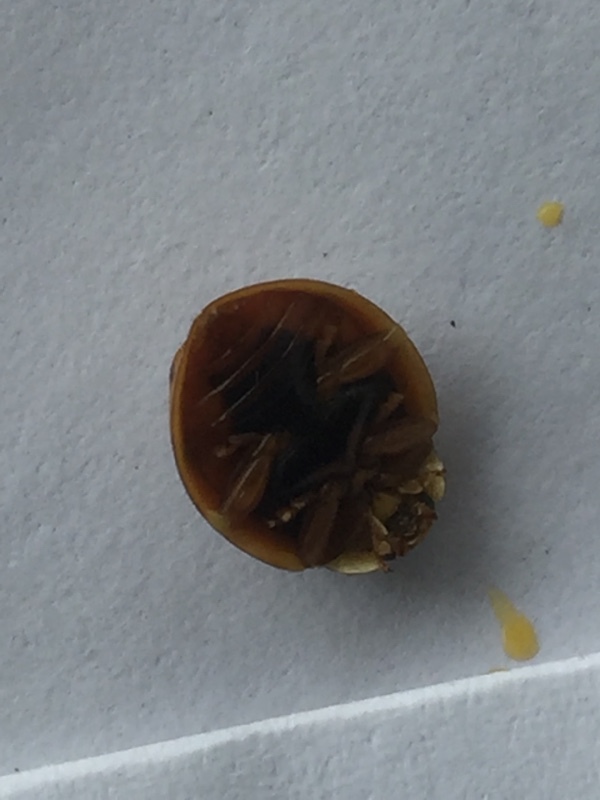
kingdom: Animalia
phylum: Arthropoda
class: Insecta
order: Coleoptera
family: Coccinellidae
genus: Harmonia
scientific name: Harmonia axyridis
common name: Harlequin ladybird
